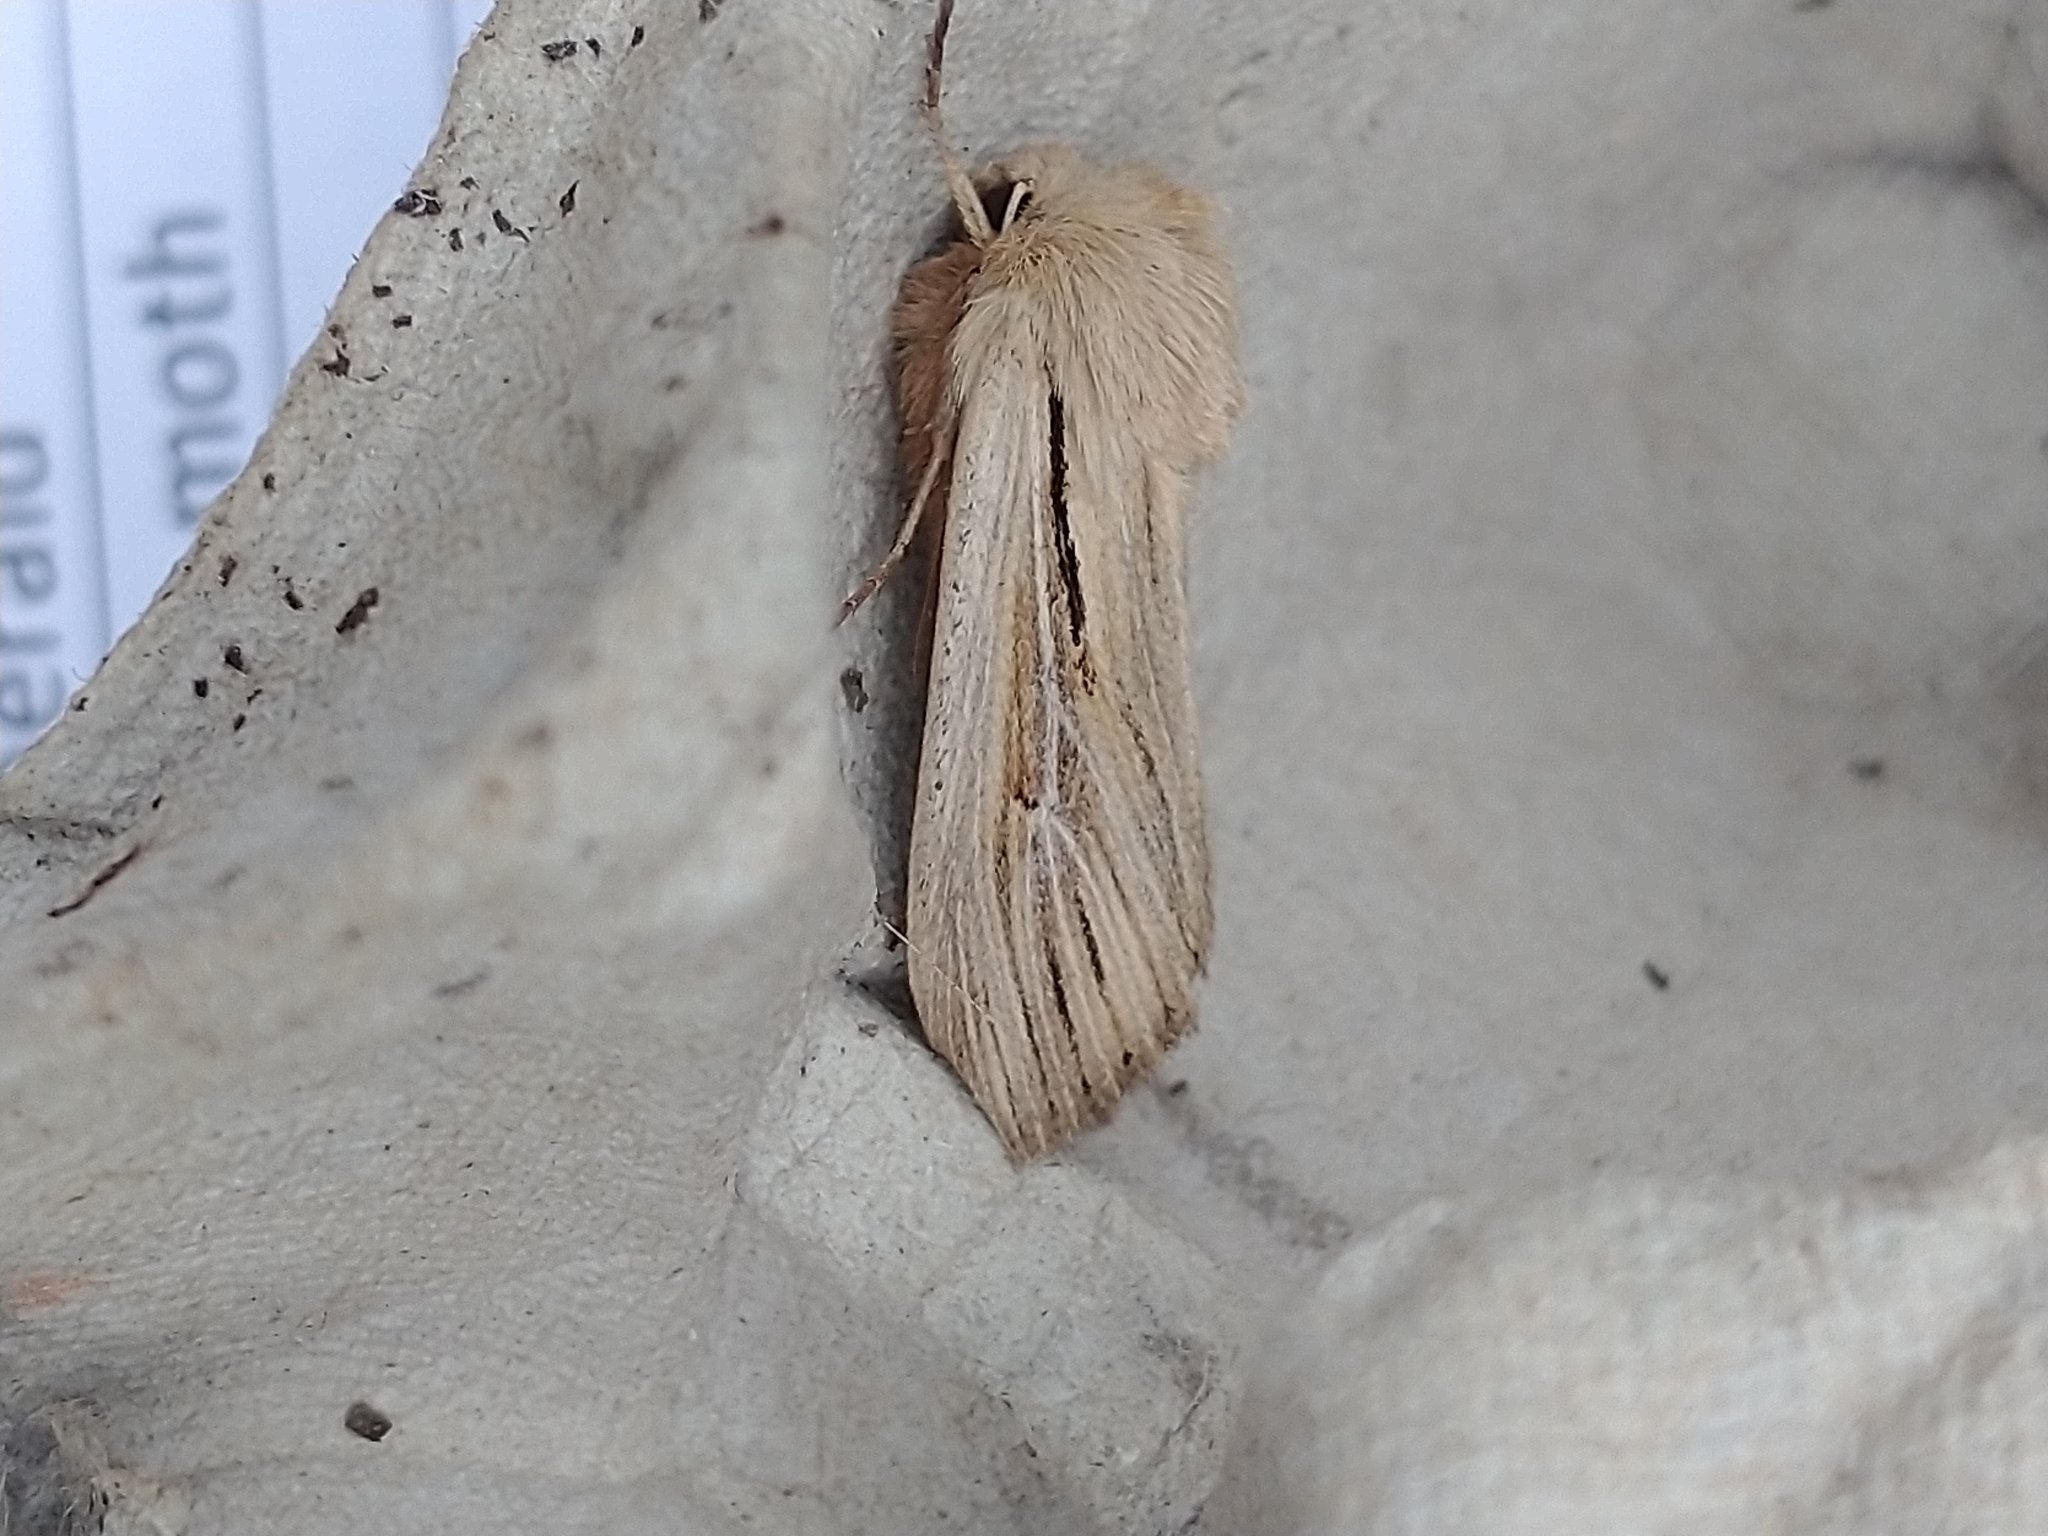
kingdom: Animalia
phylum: Arthropoda
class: Insecta
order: Lepidoptera
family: Noctuidae
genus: Leucania
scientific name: Leucania comma
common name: Shoulder-striped wainscot
